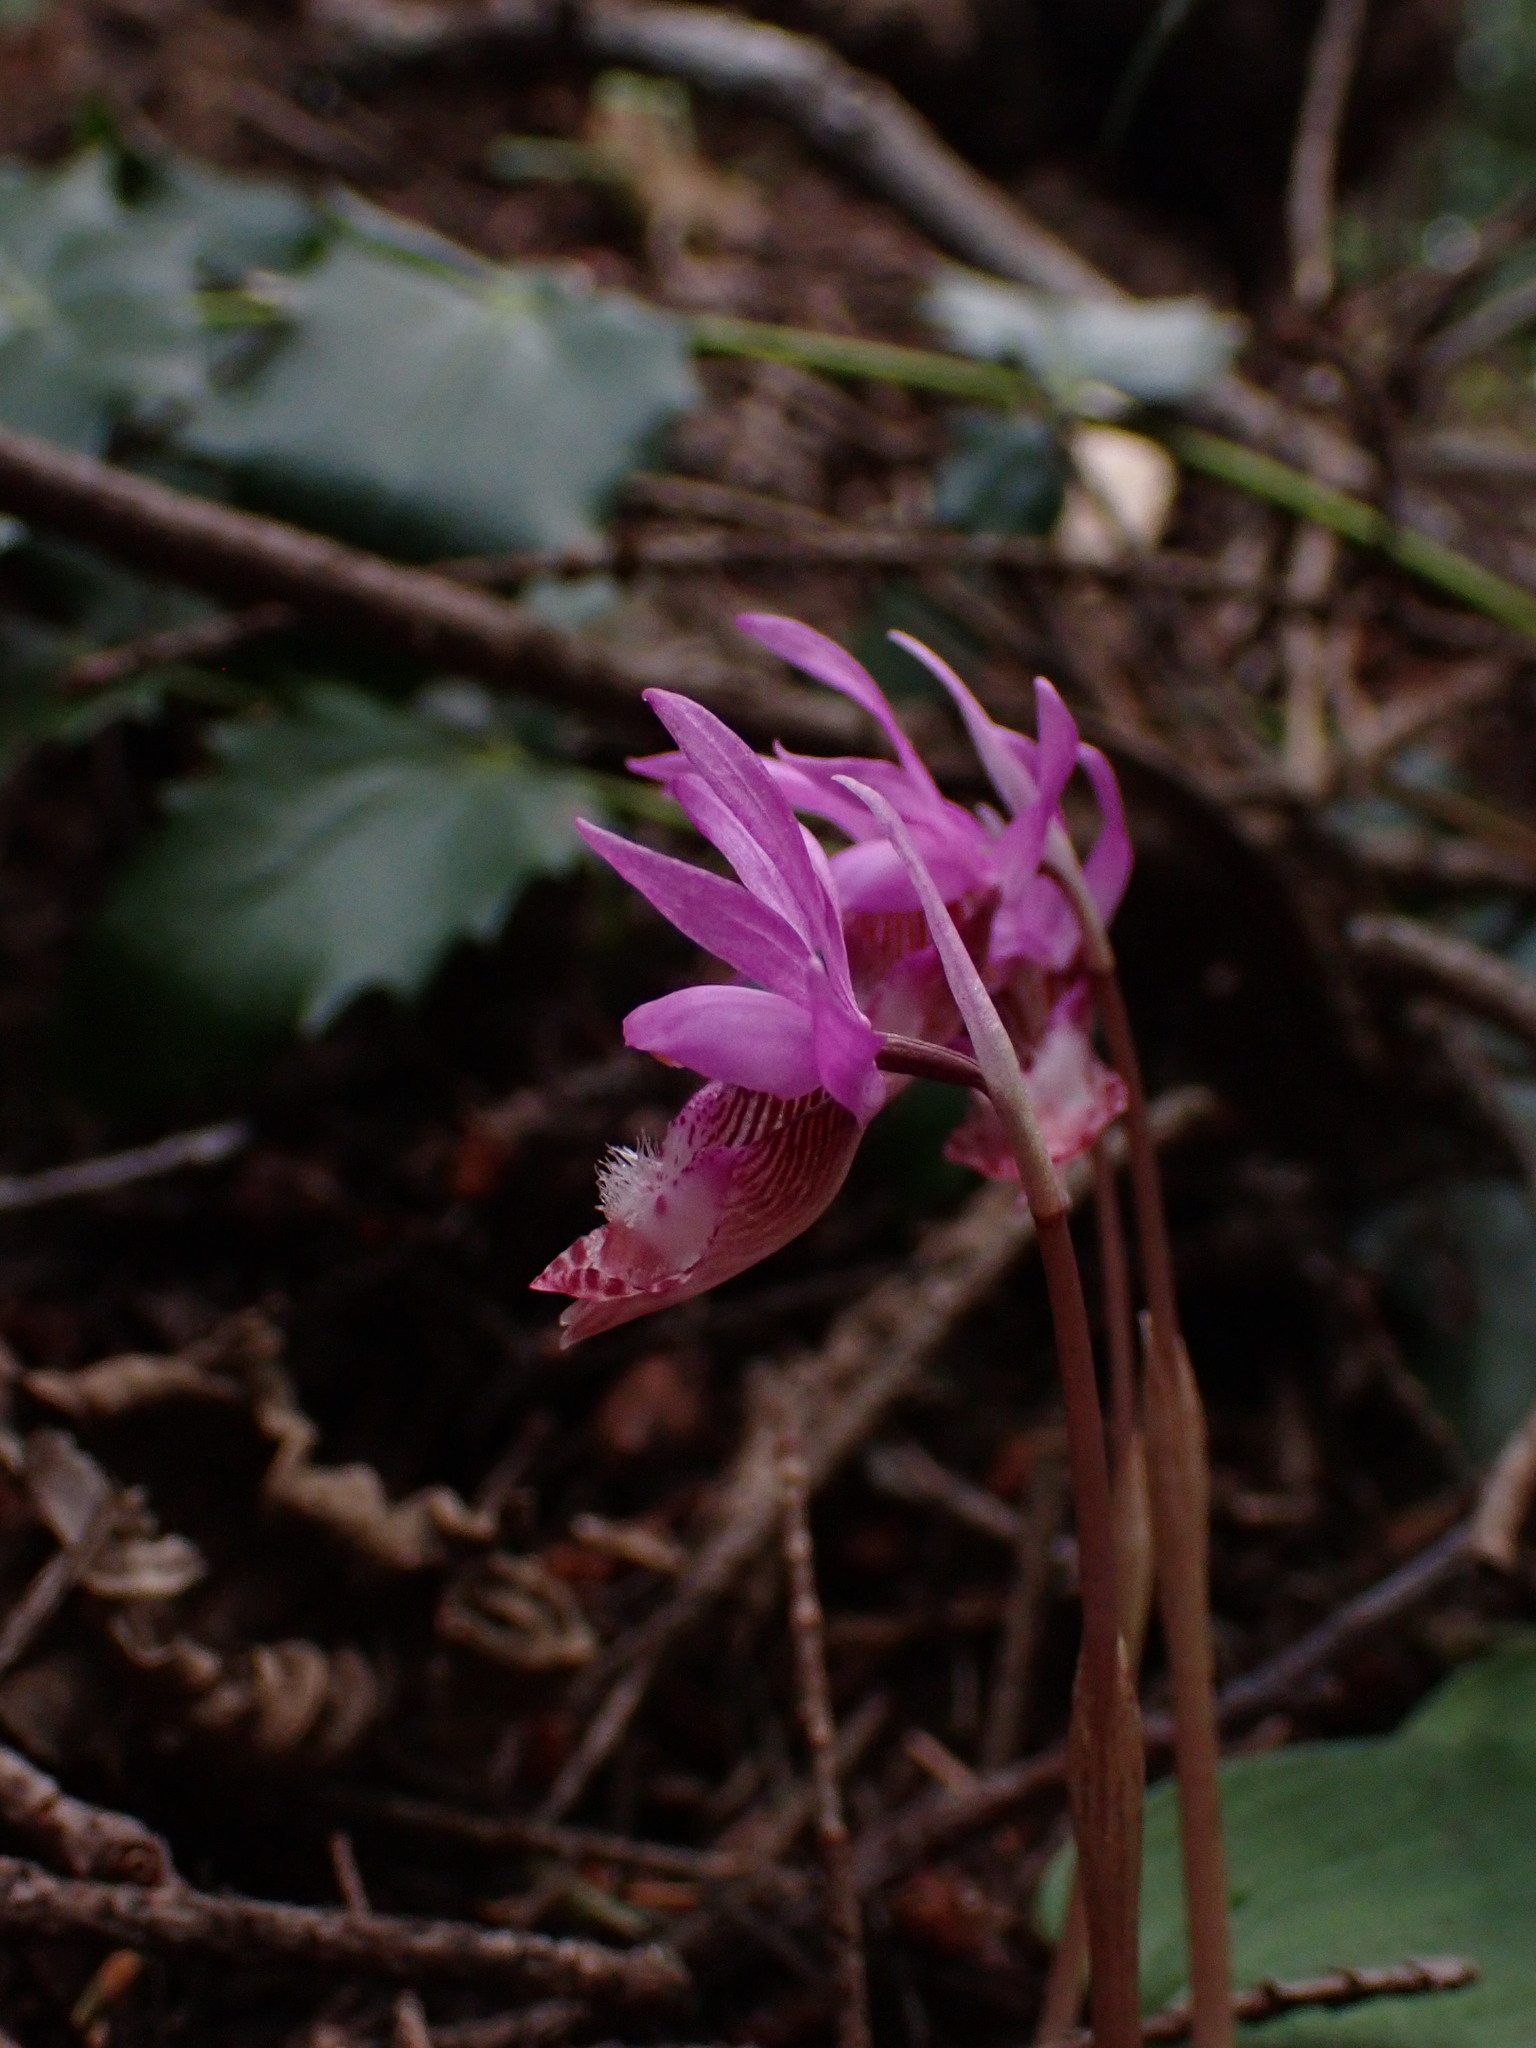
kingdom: Plantae
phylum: Tracheophyta
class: Liliopsida
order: Asparagales
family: Orchidaceae
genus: Calypso
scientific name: Calypso bulbosa
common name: Calypso
